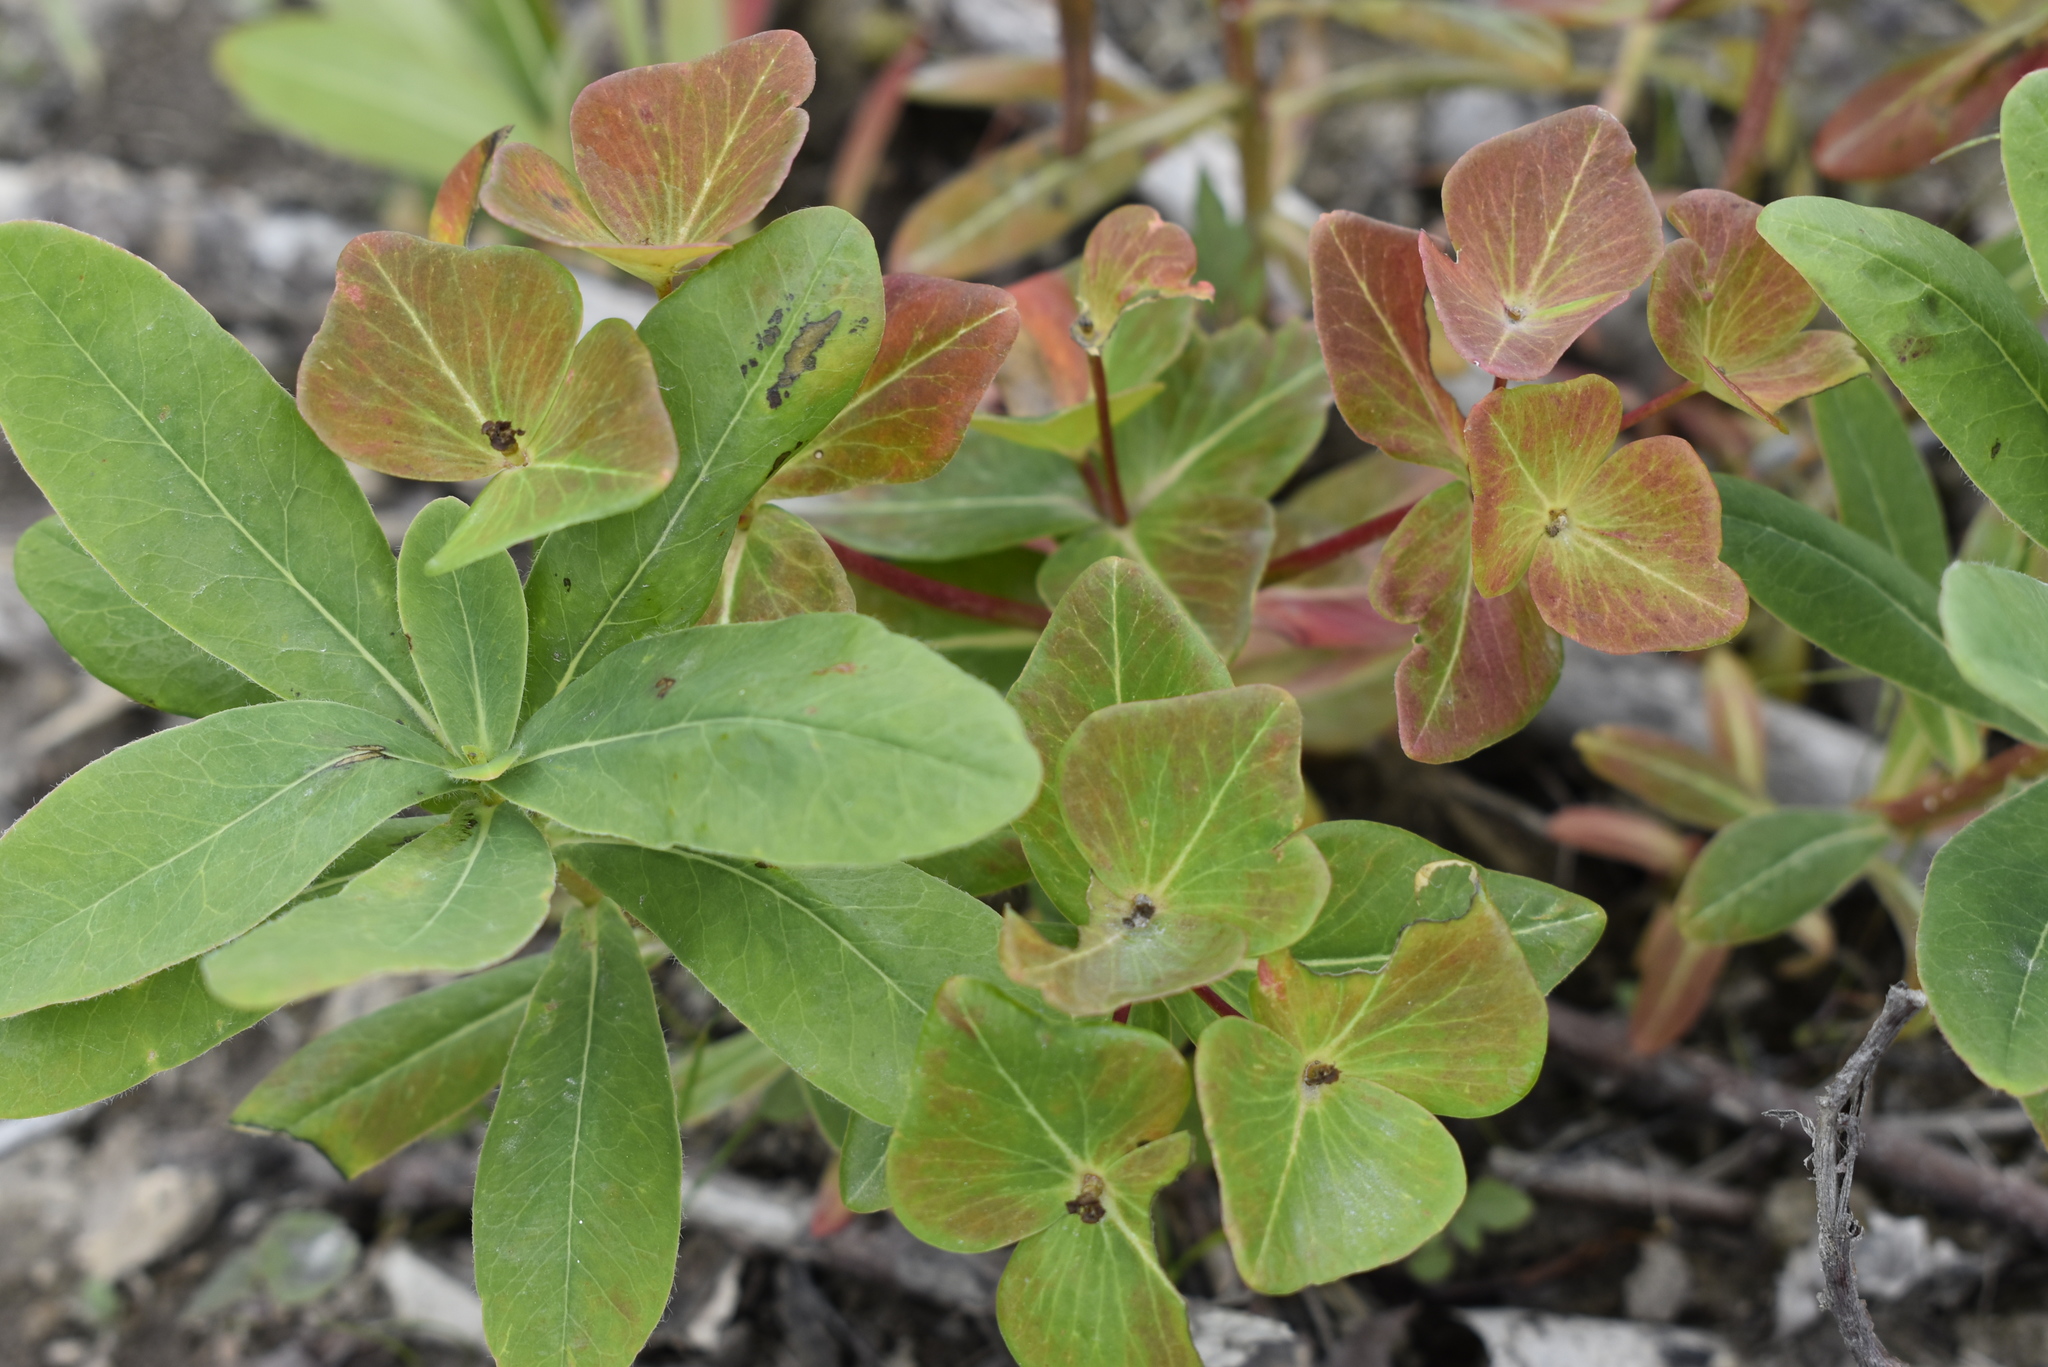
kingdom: Plantae
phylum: Tracheophyta
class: Magnoliopsida
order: Malpighiales
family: Euphorbiaceae
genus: Euphorbia
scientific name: Euphorbia hylonoma
